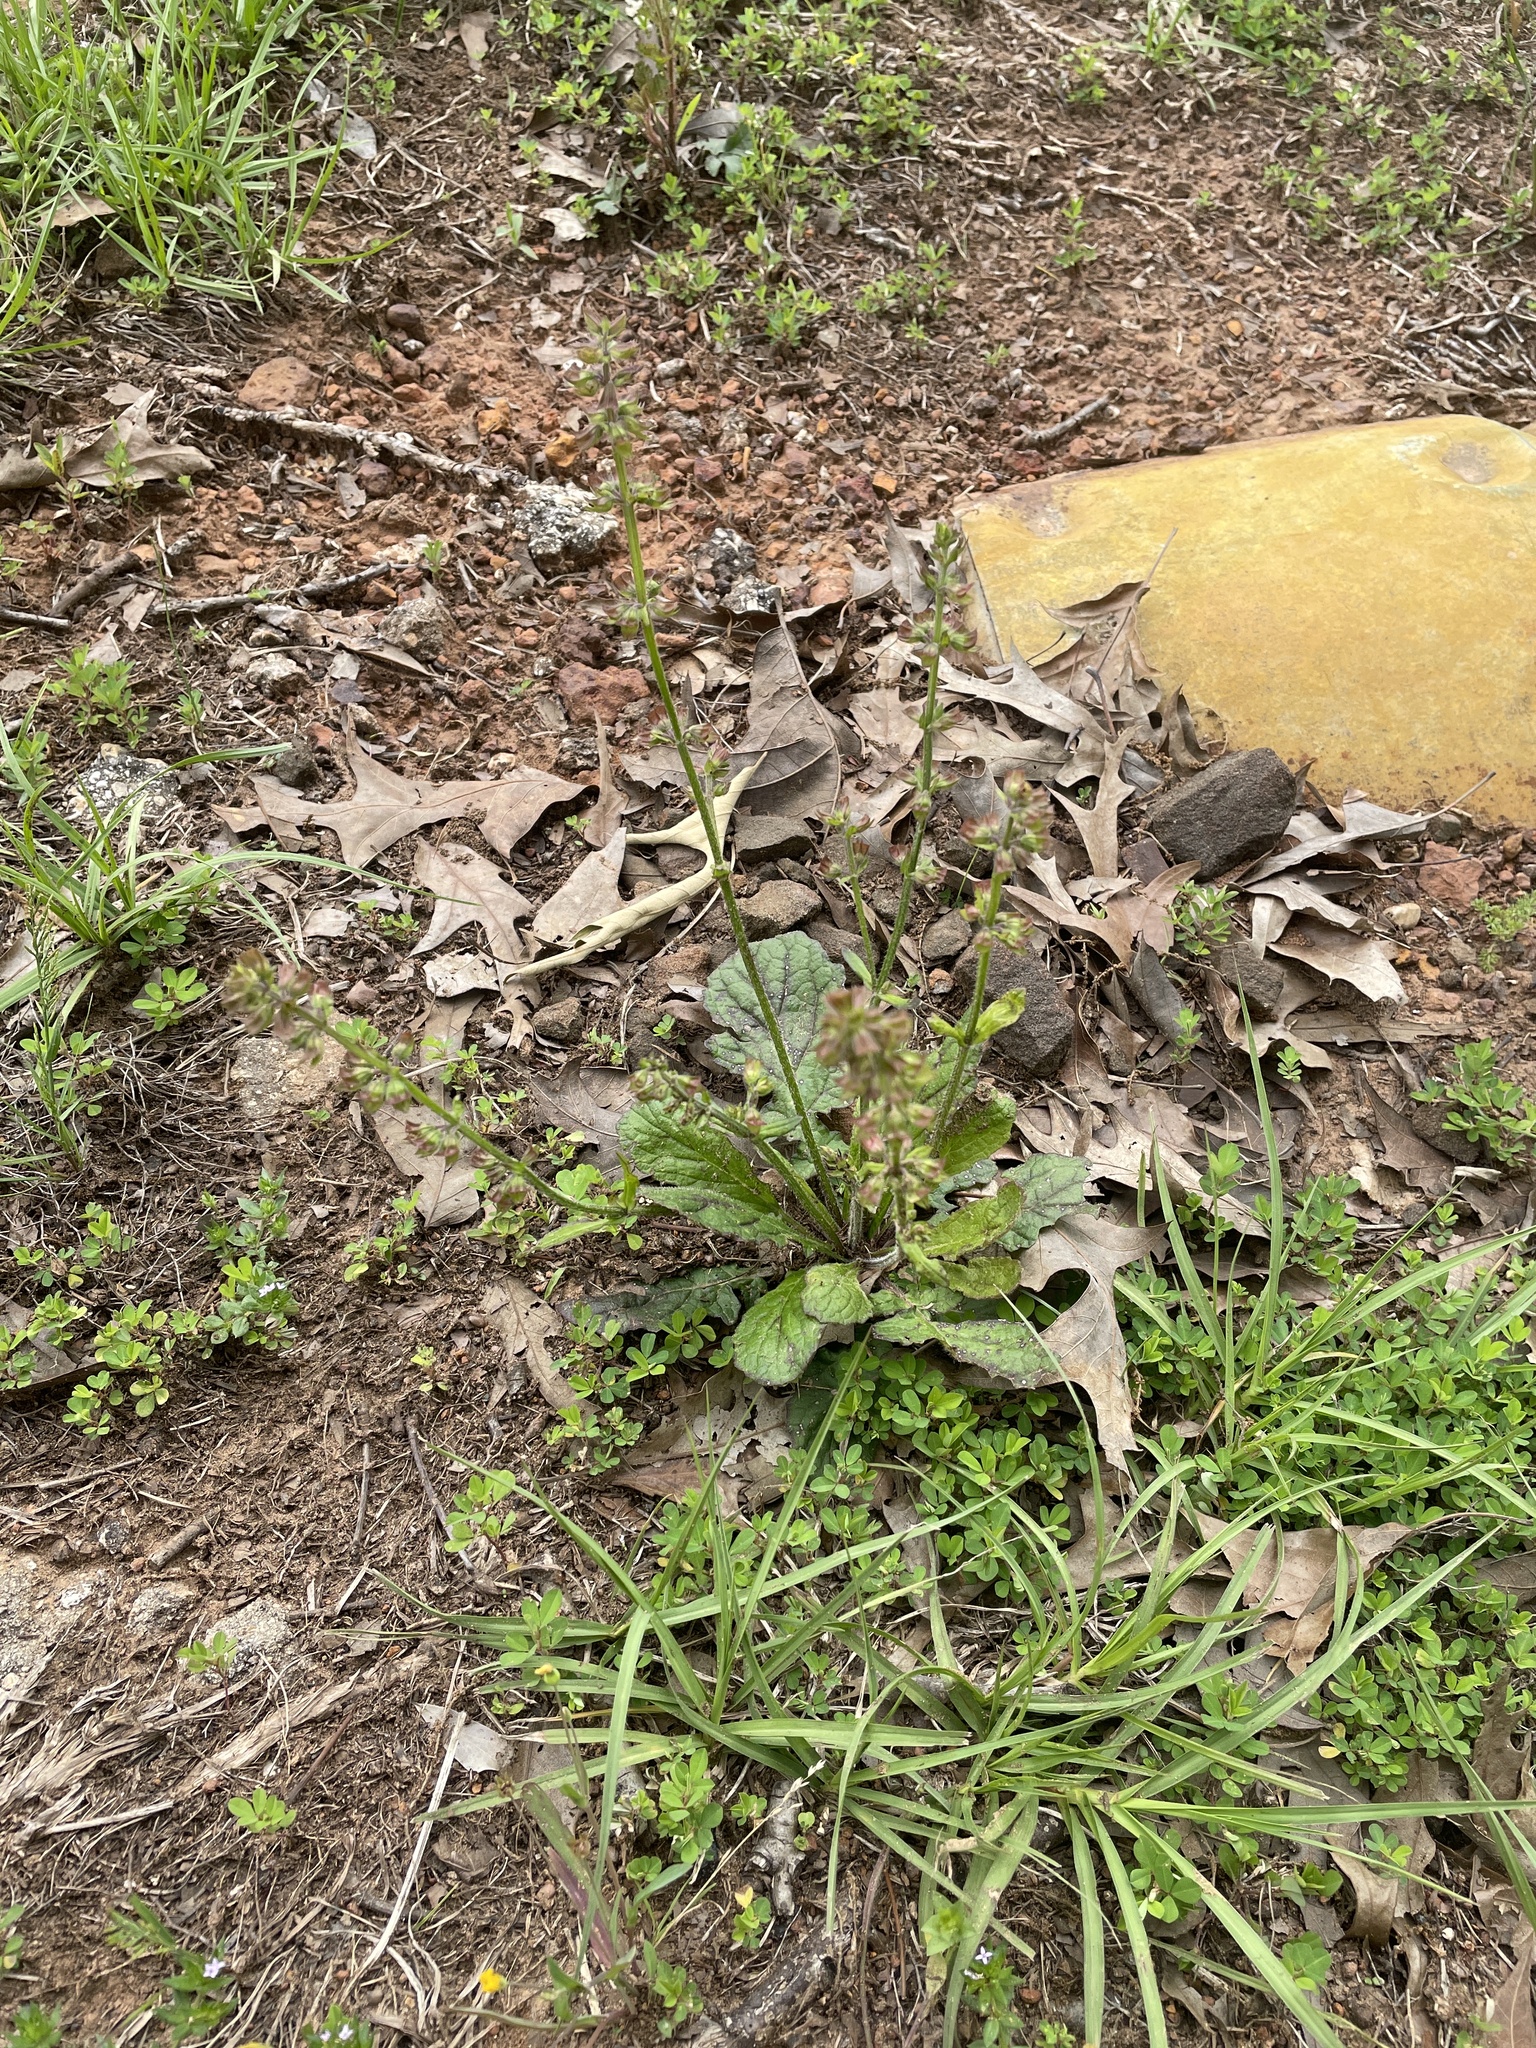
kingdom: Plantae
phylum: Tracheophyta
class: Magnoliopsida
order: Lamiales
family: Lamiaceae
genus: Salvia
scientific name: Salvia lyrata
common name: Cancerweed
